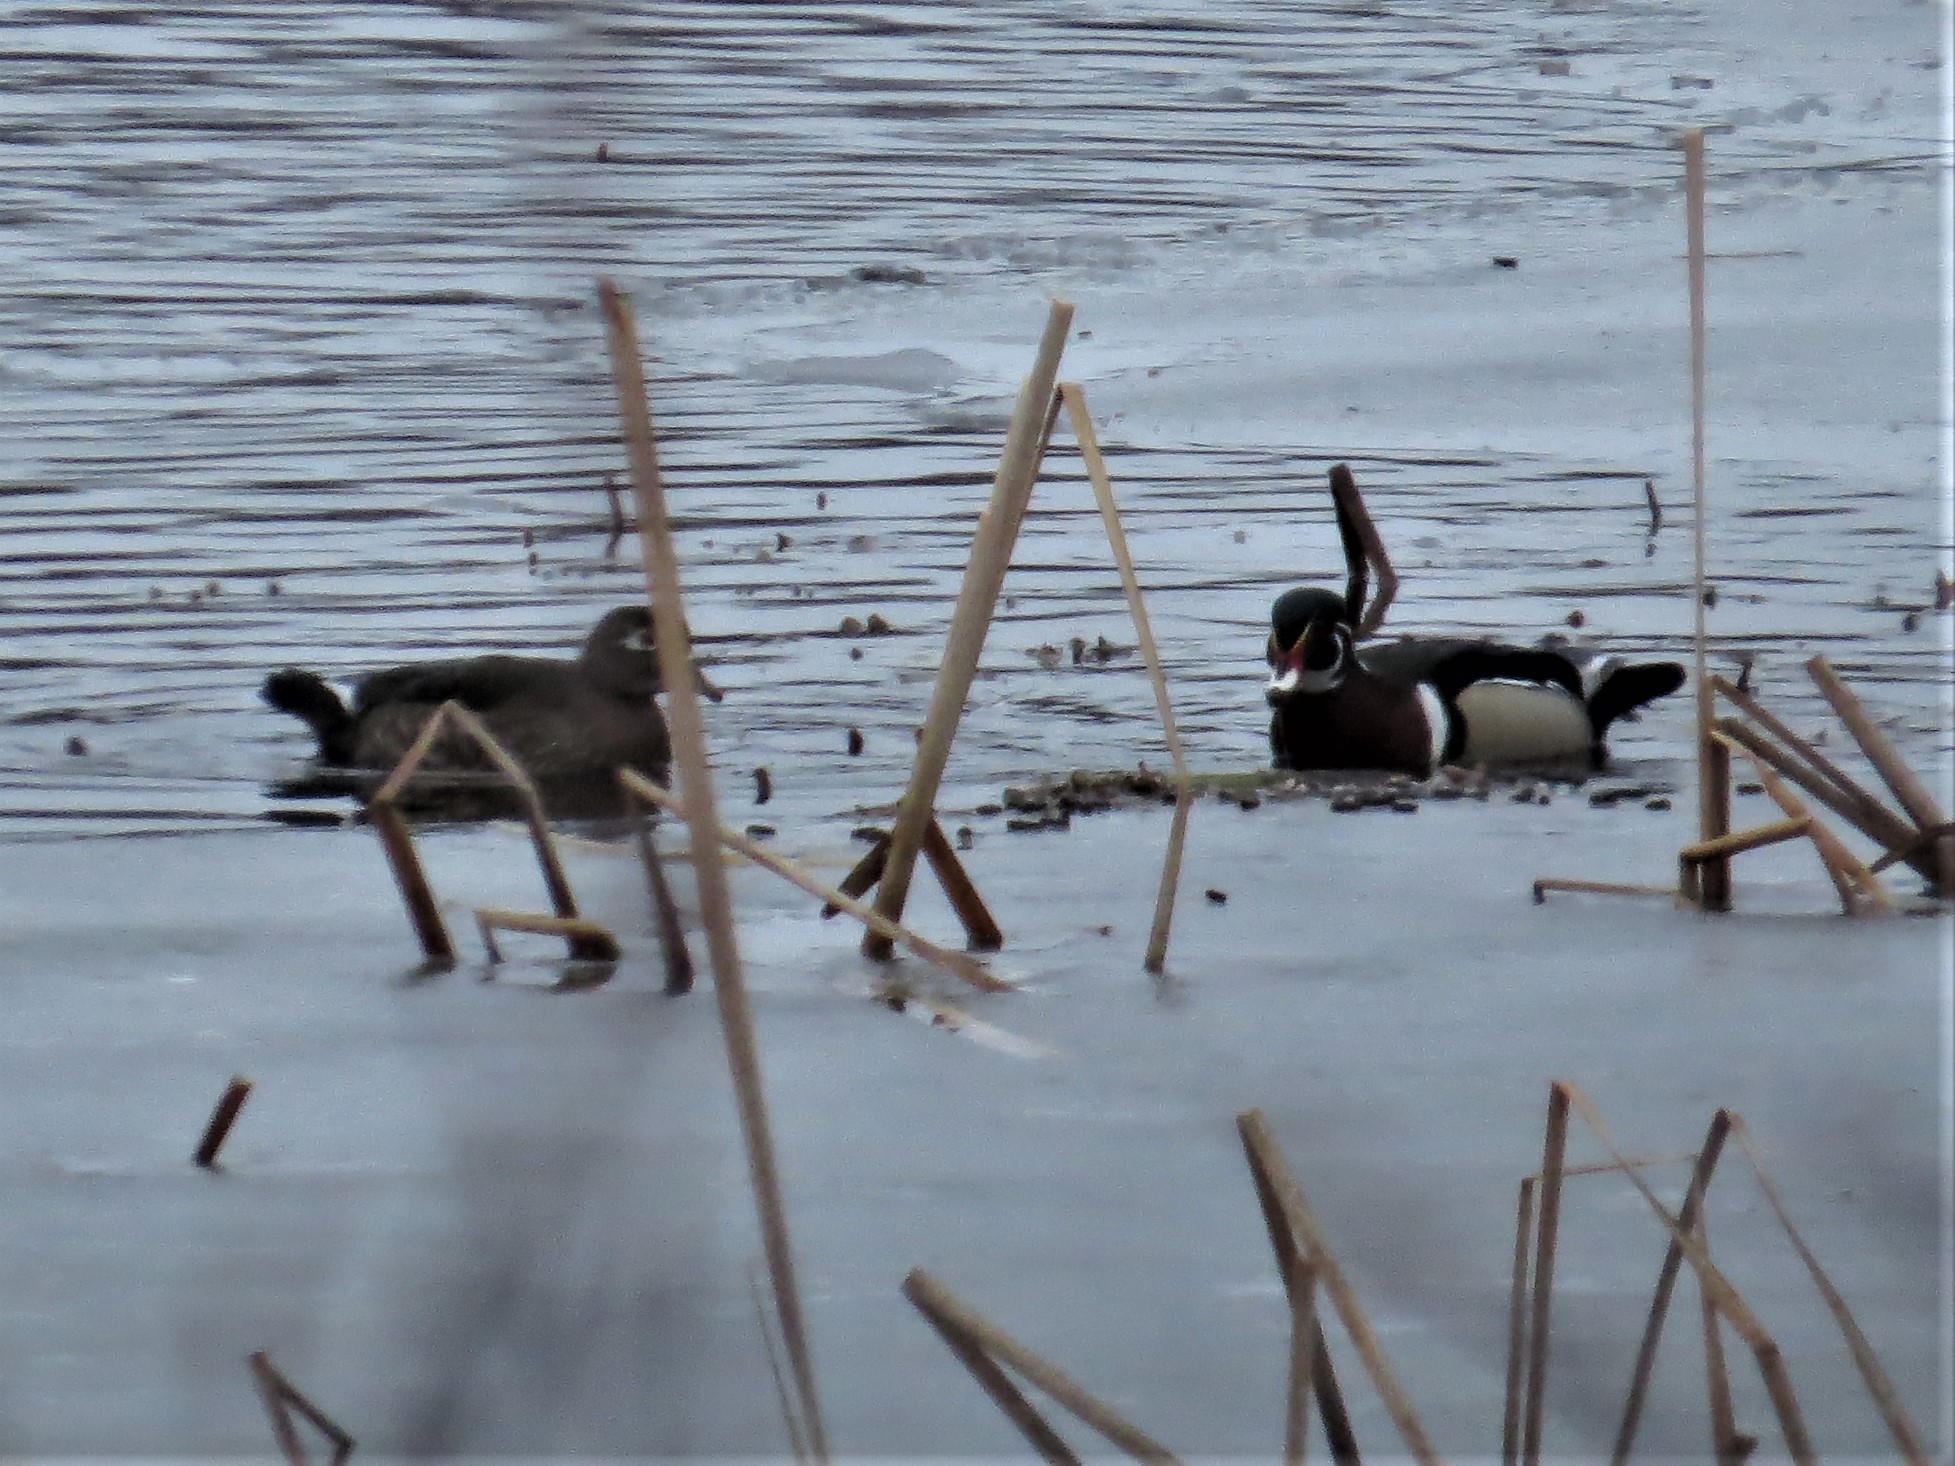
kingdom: Animalia
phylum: Chordata
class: Aves
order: Anseriformes
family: Anatidae
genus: Aix
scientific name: Aix sponsa
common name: Wood duck
